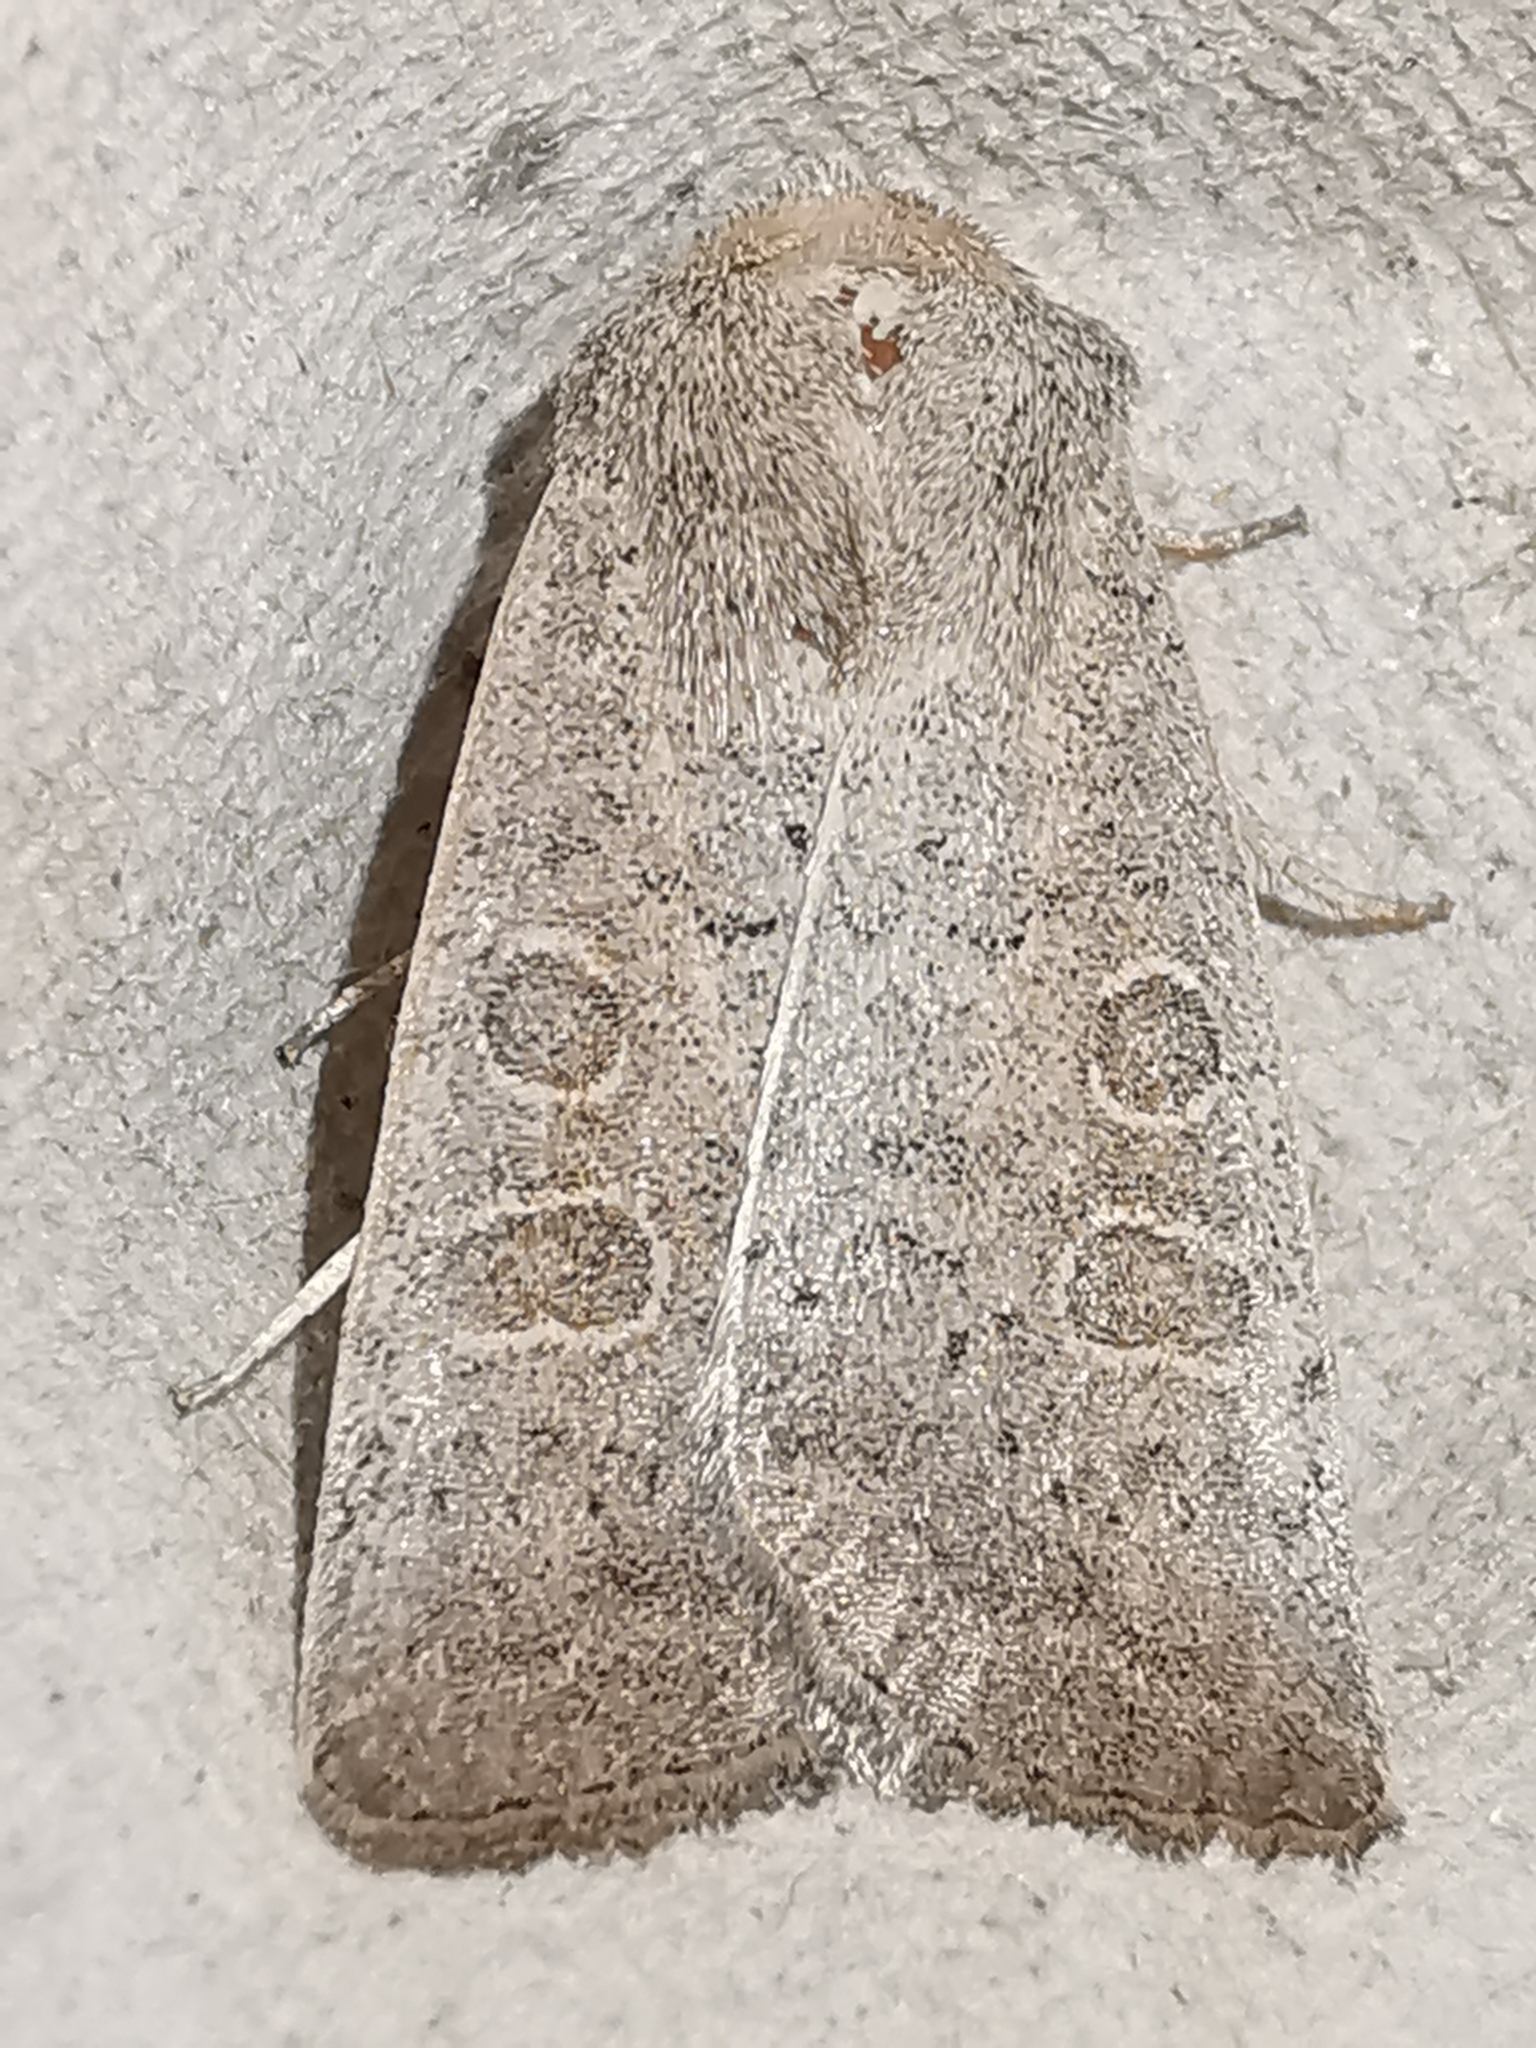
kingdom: Animalia
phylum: Arthropoda
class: Insecta
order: Lepidoptera
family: Noctuidae
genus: Hoplodrina
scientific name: Hoplodrina ambigua
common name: Vine's rustic
